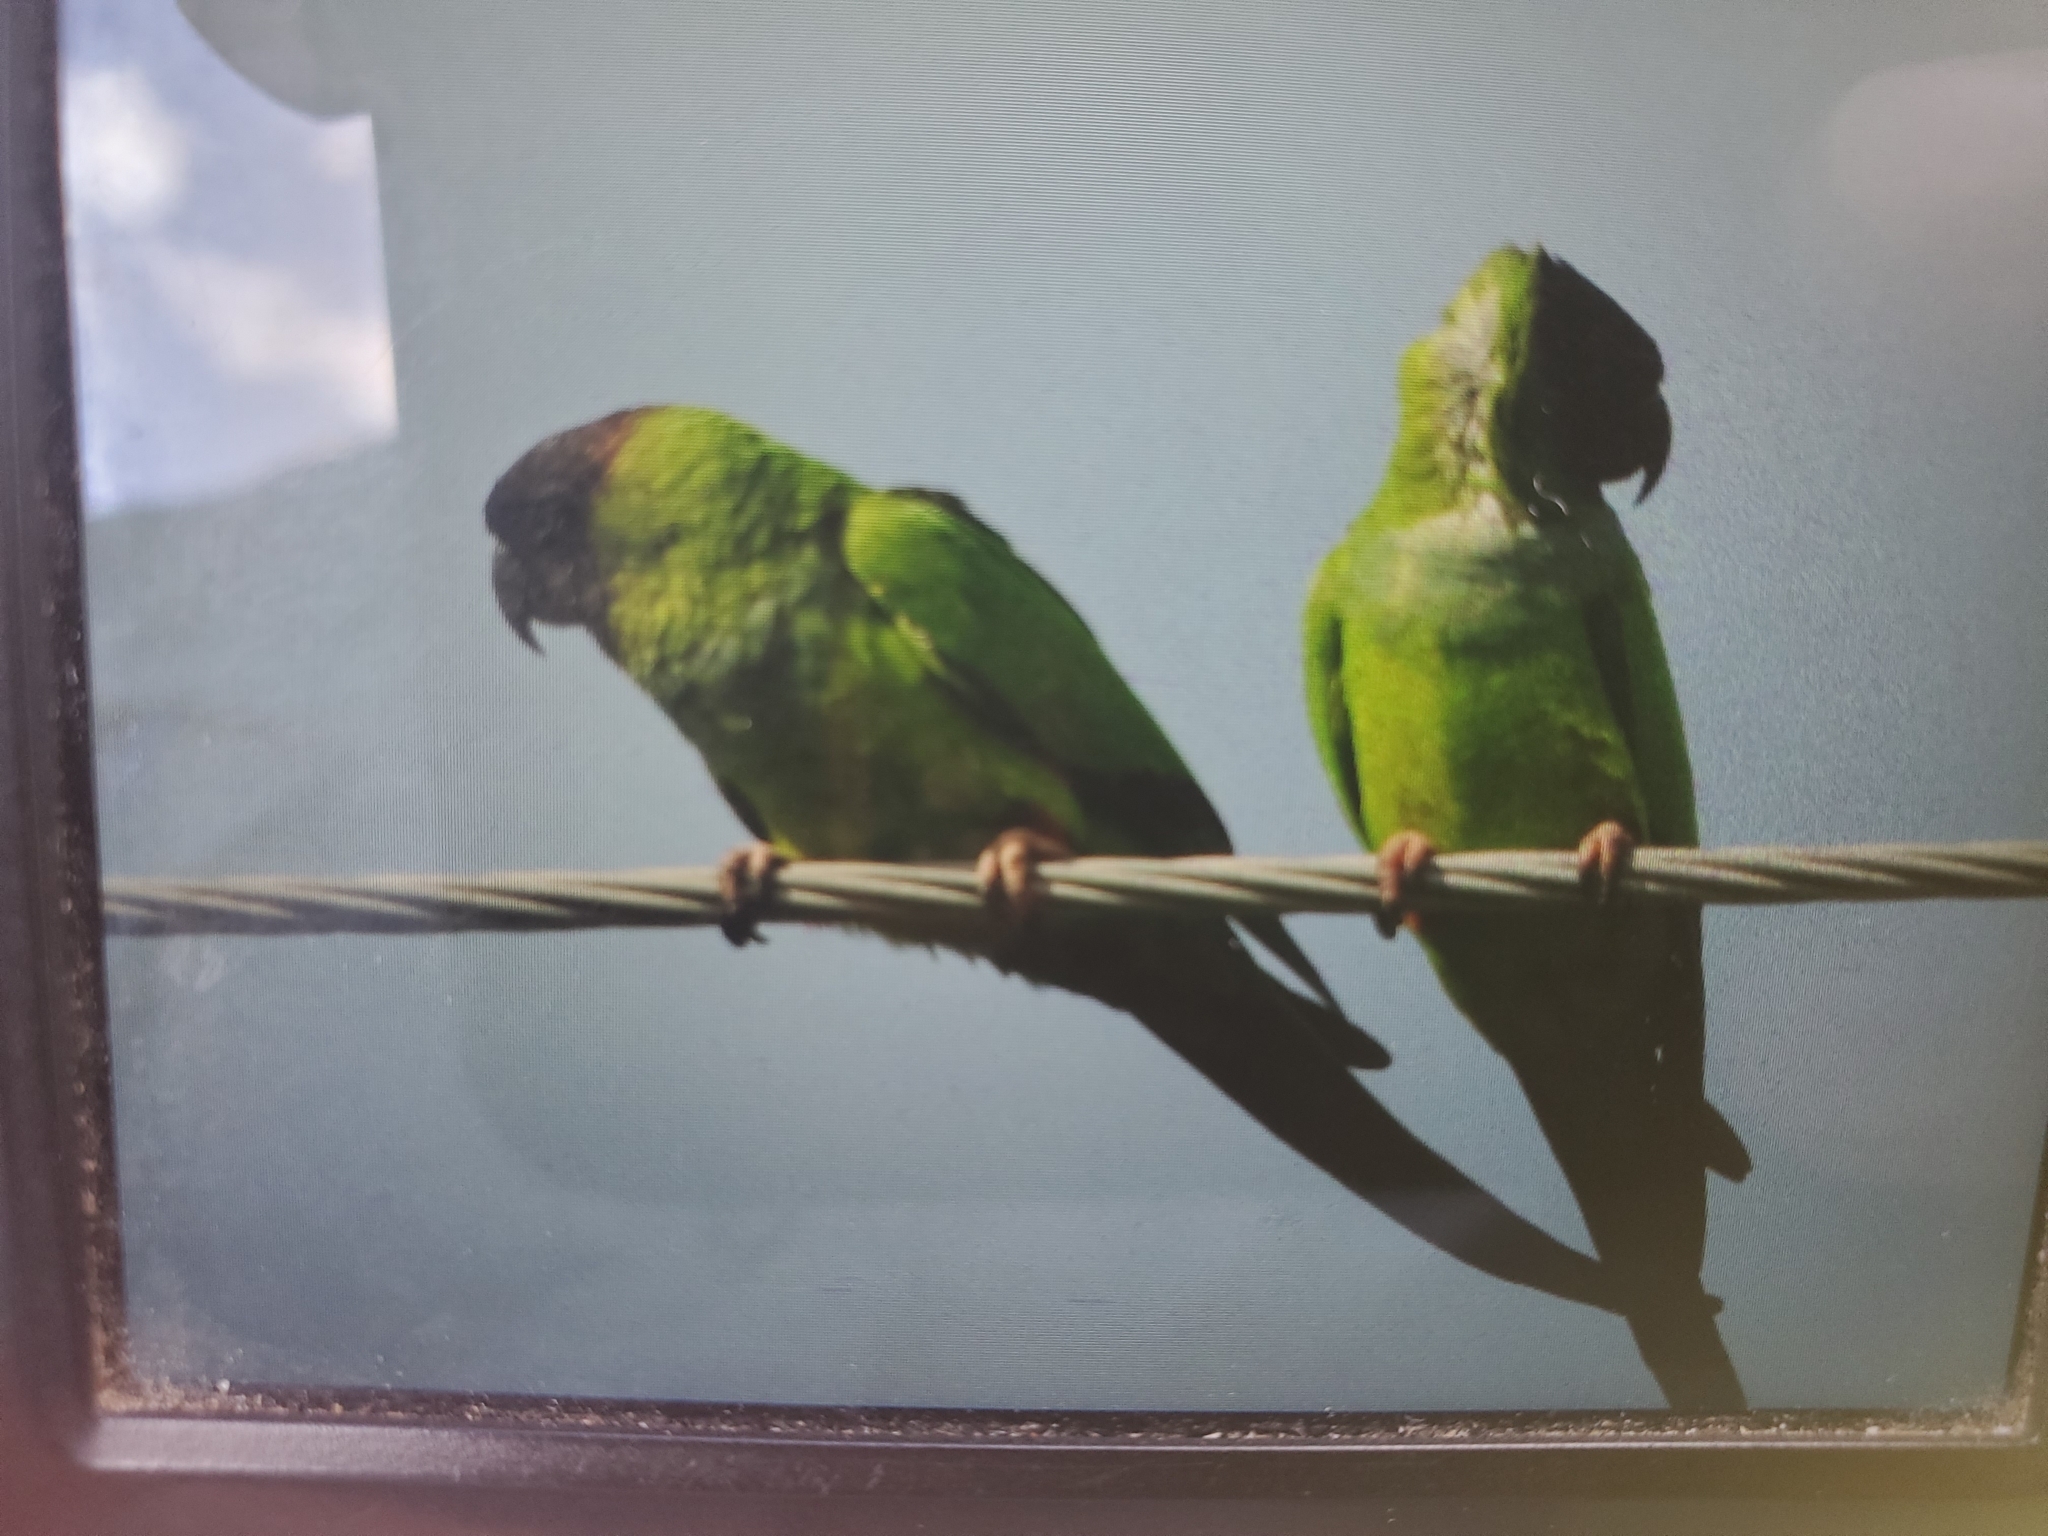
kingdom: Animalia
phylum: Chordata
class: Aves
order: Psittaciformes
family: Psittacidae
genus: Nandayus
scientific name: Nandayus nenday
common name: Nanday parakeet
